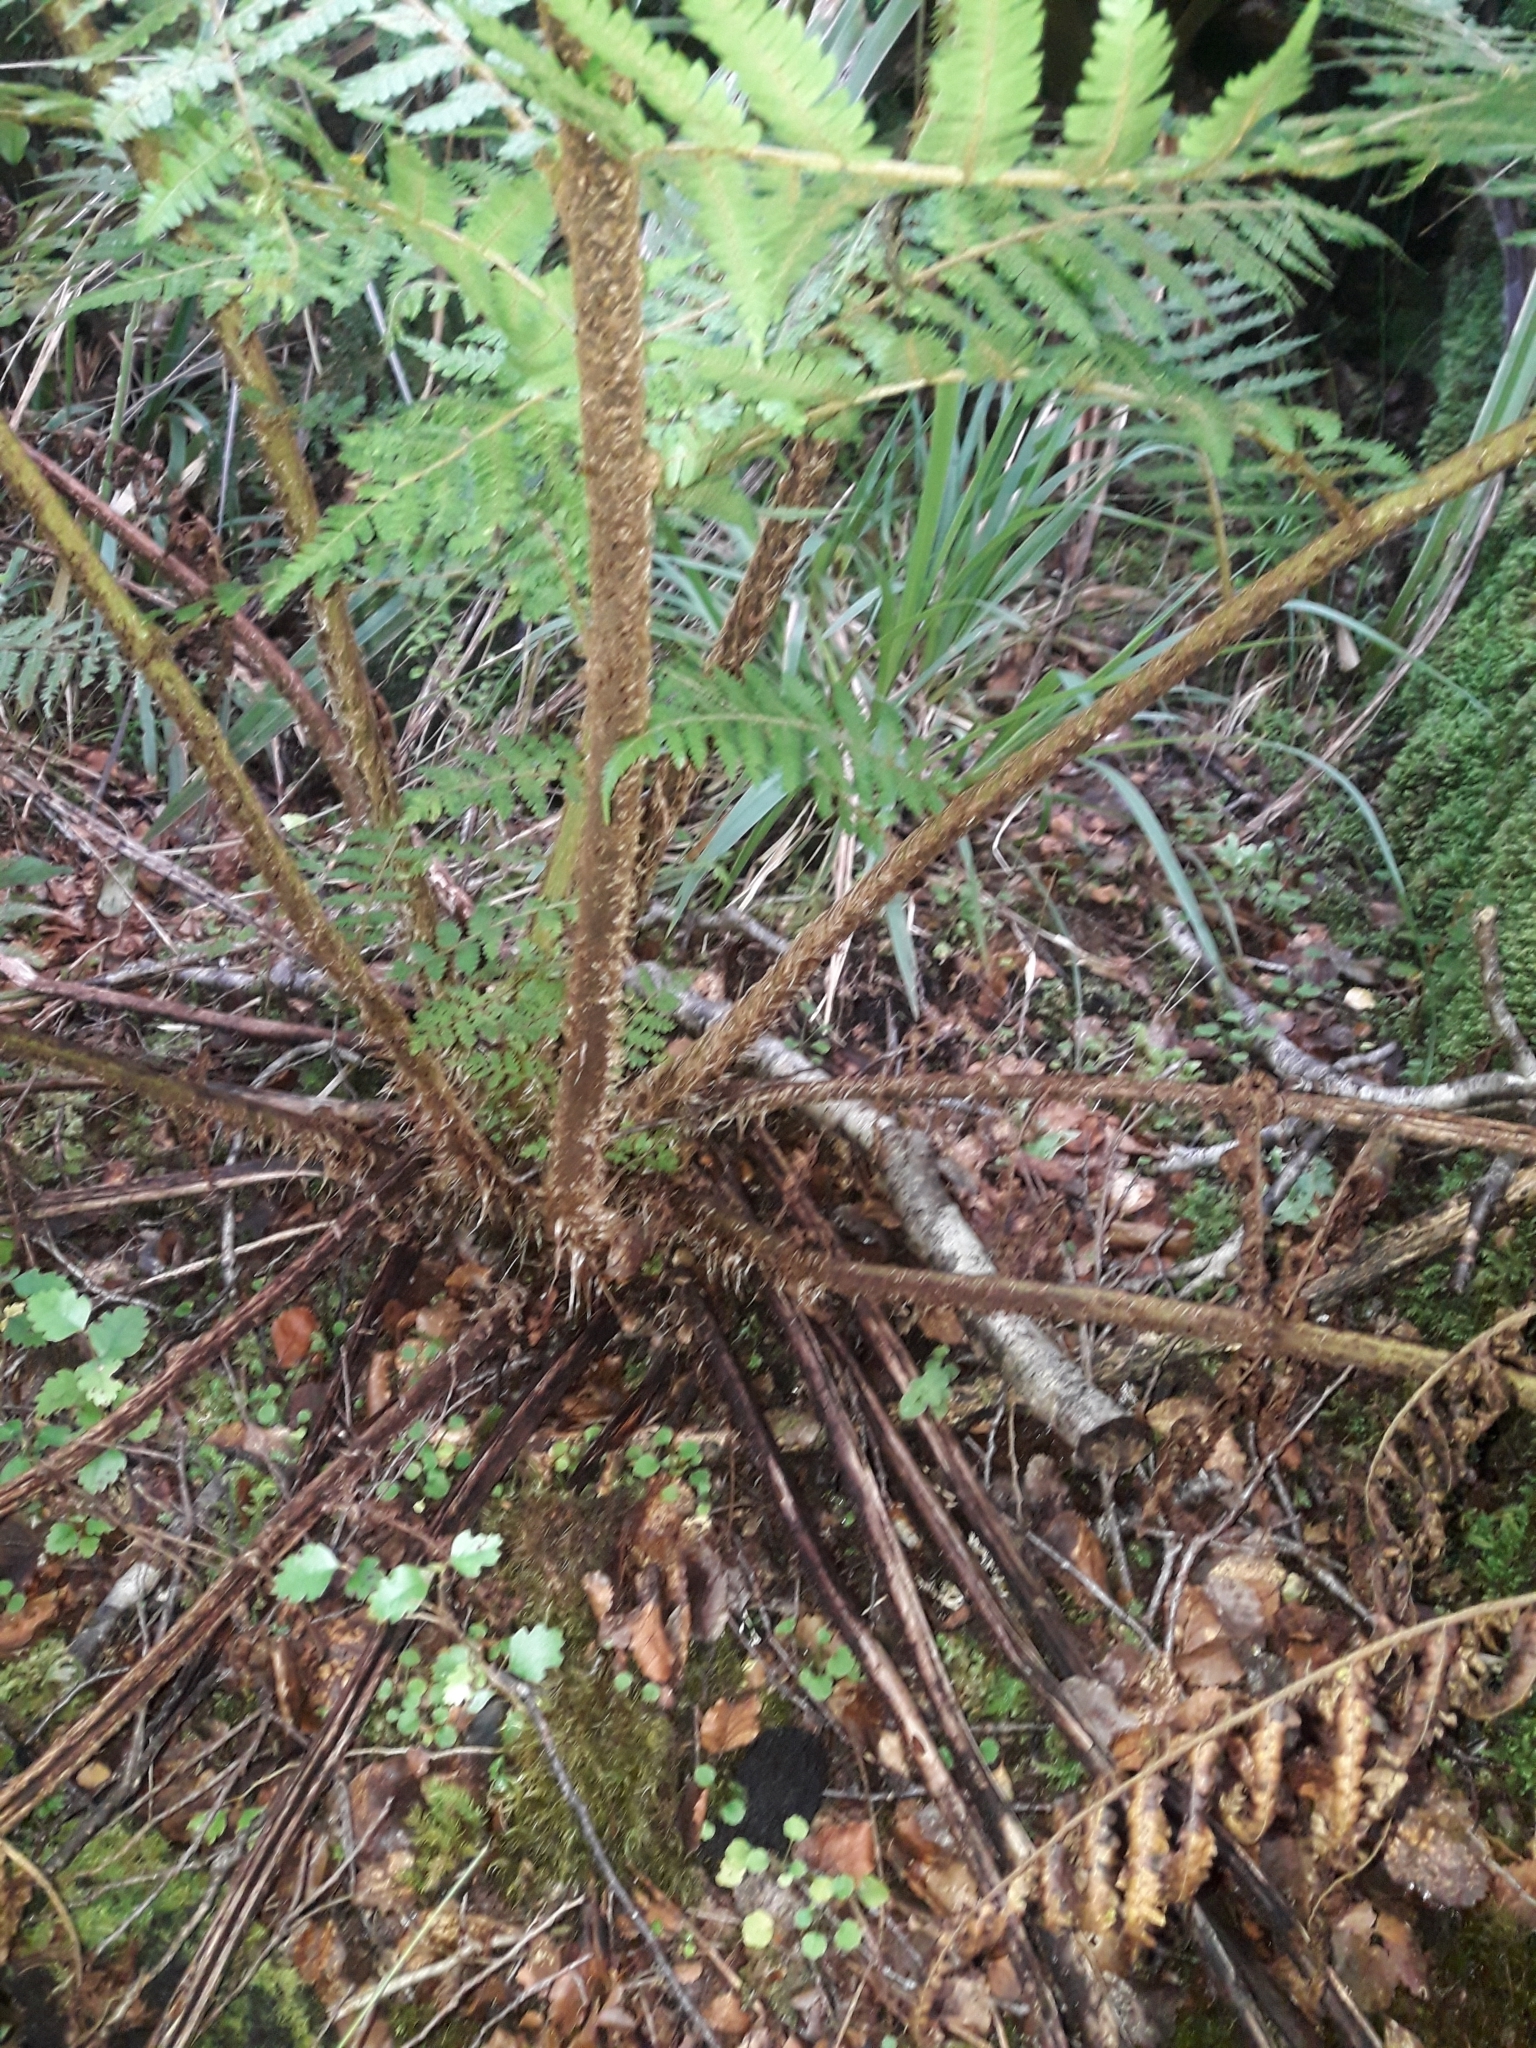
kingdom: Plantae
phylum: Tracheophyta
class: Polypodiopsida
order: Cyatheales
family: Cyatheaceae
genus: Alsophila
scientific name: Alsophila colensoi
